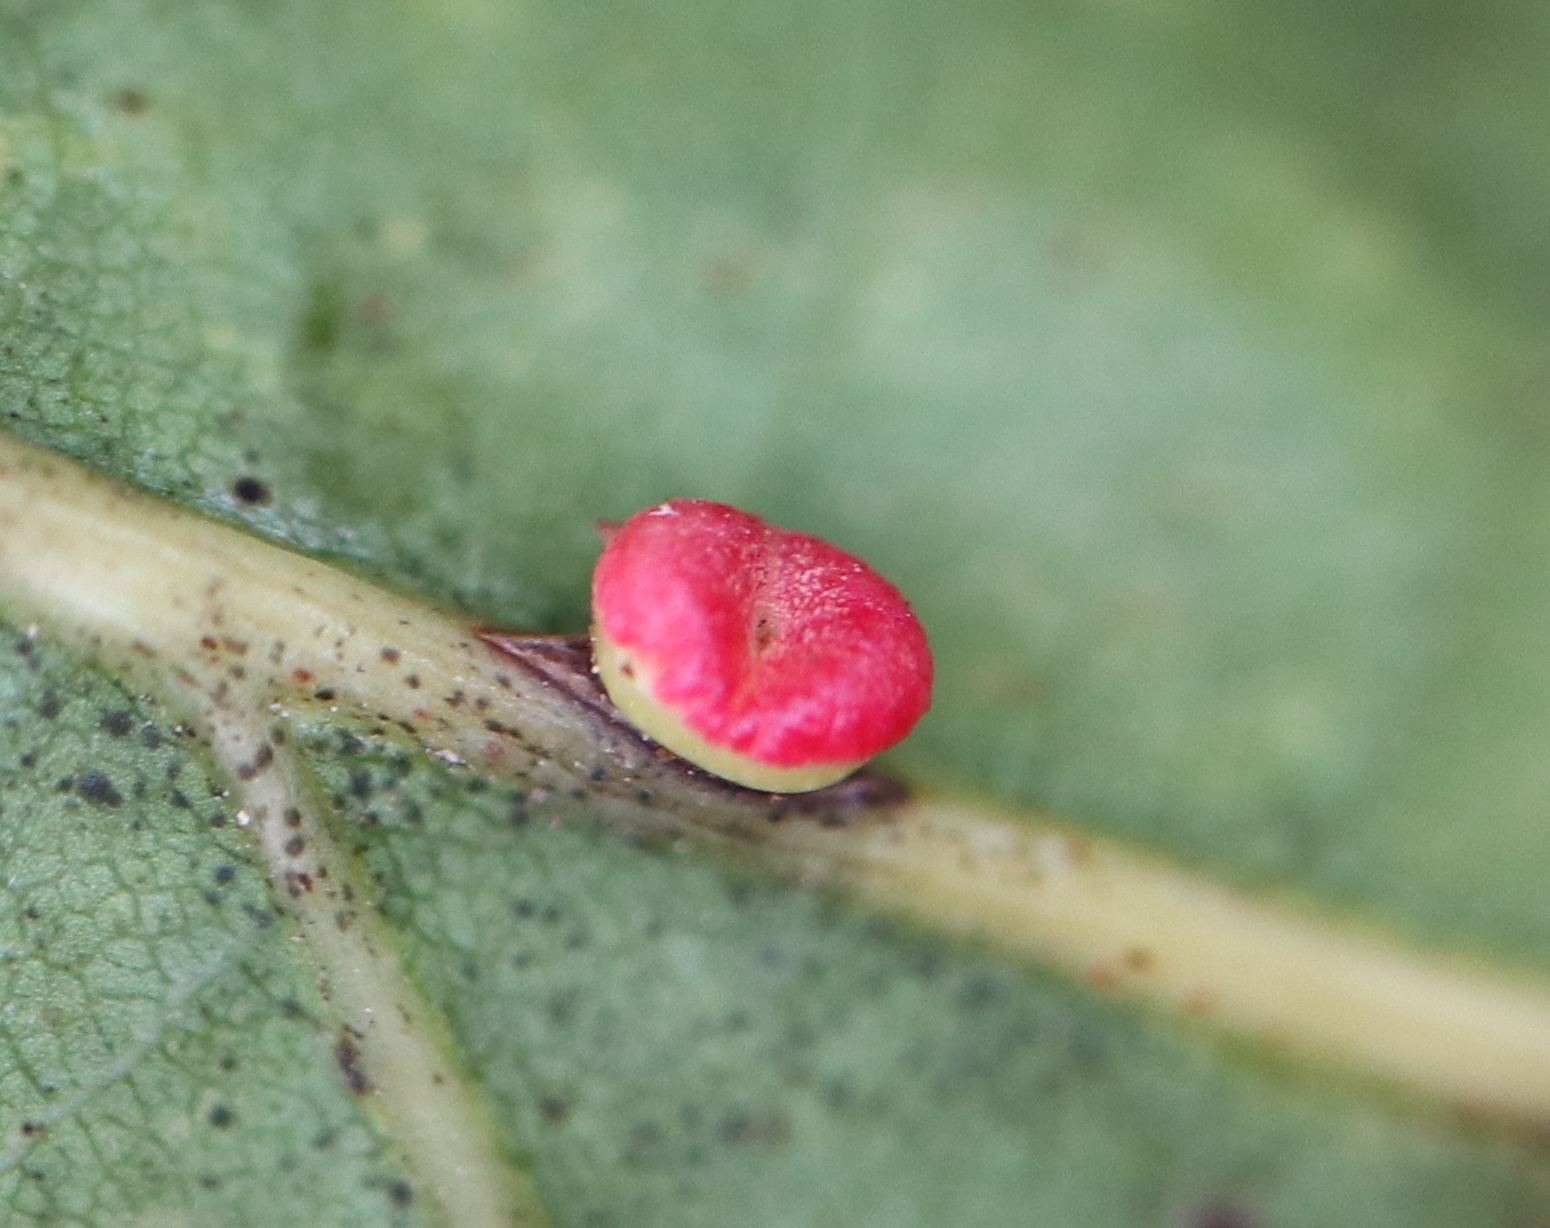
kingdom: Animalia
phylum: Arthropoda
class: Insecta
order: Hymenoptera
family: Cynipidae
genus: Kokkocynips
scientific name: Kokkocynips rileyi
